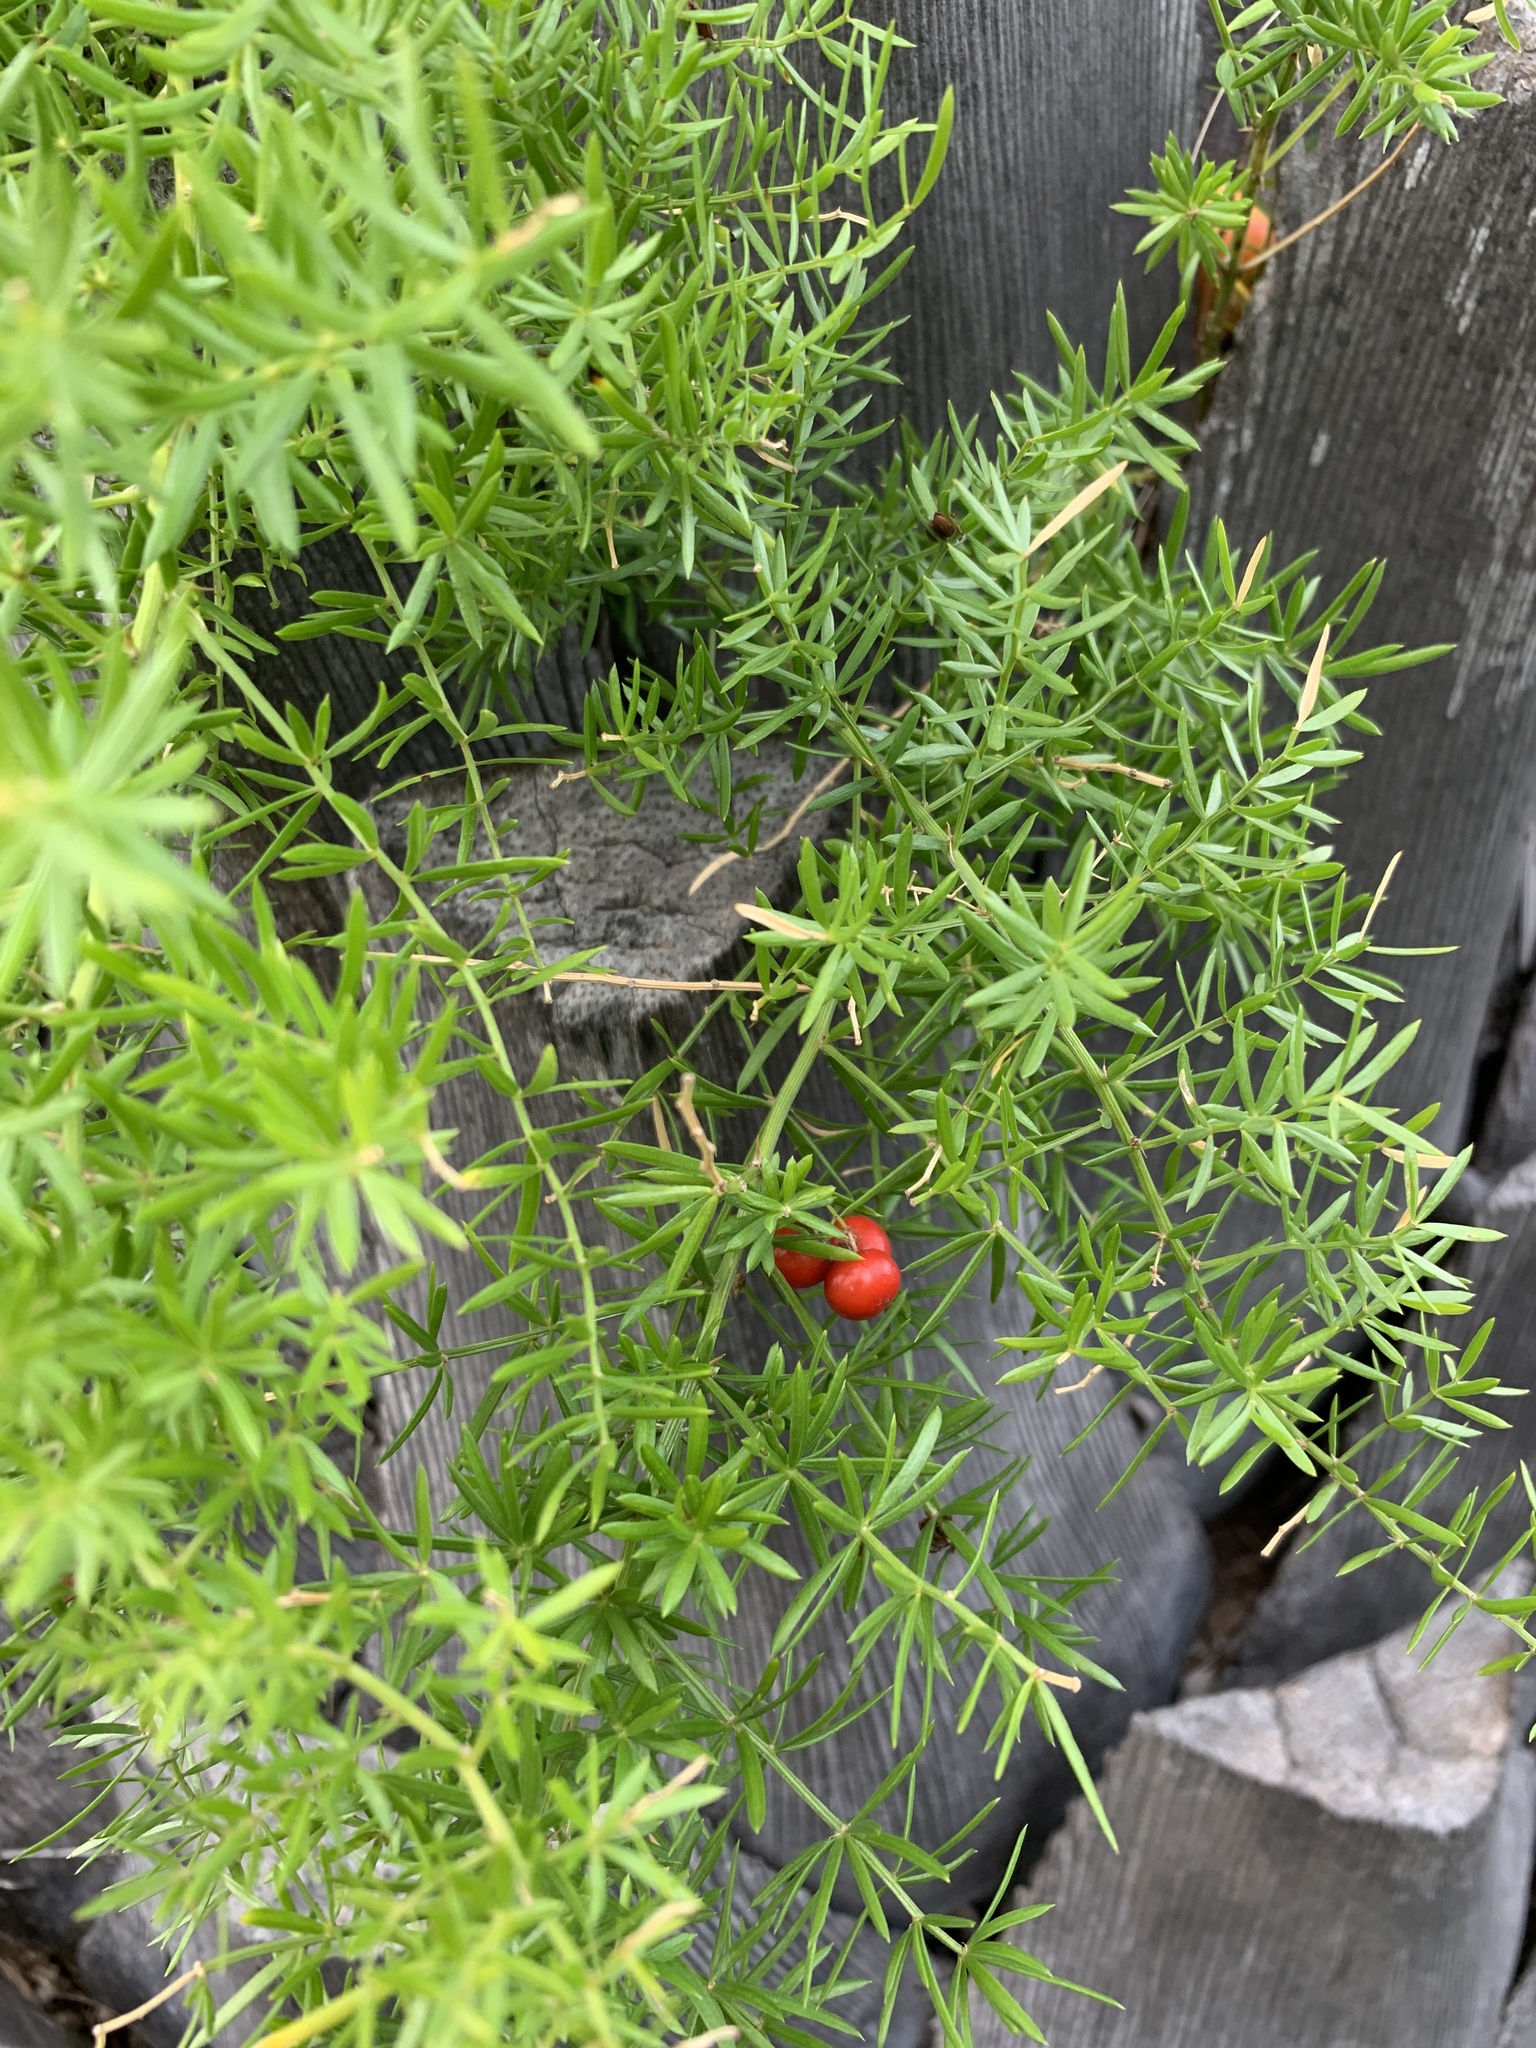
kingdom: Plantae
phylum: Tracheophyta
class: Liliopsida
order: Asparagales
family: Asparagaceae
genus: Asparagus
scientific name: Asparagus aethiopicus
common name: Sprenger's asparagus fern
